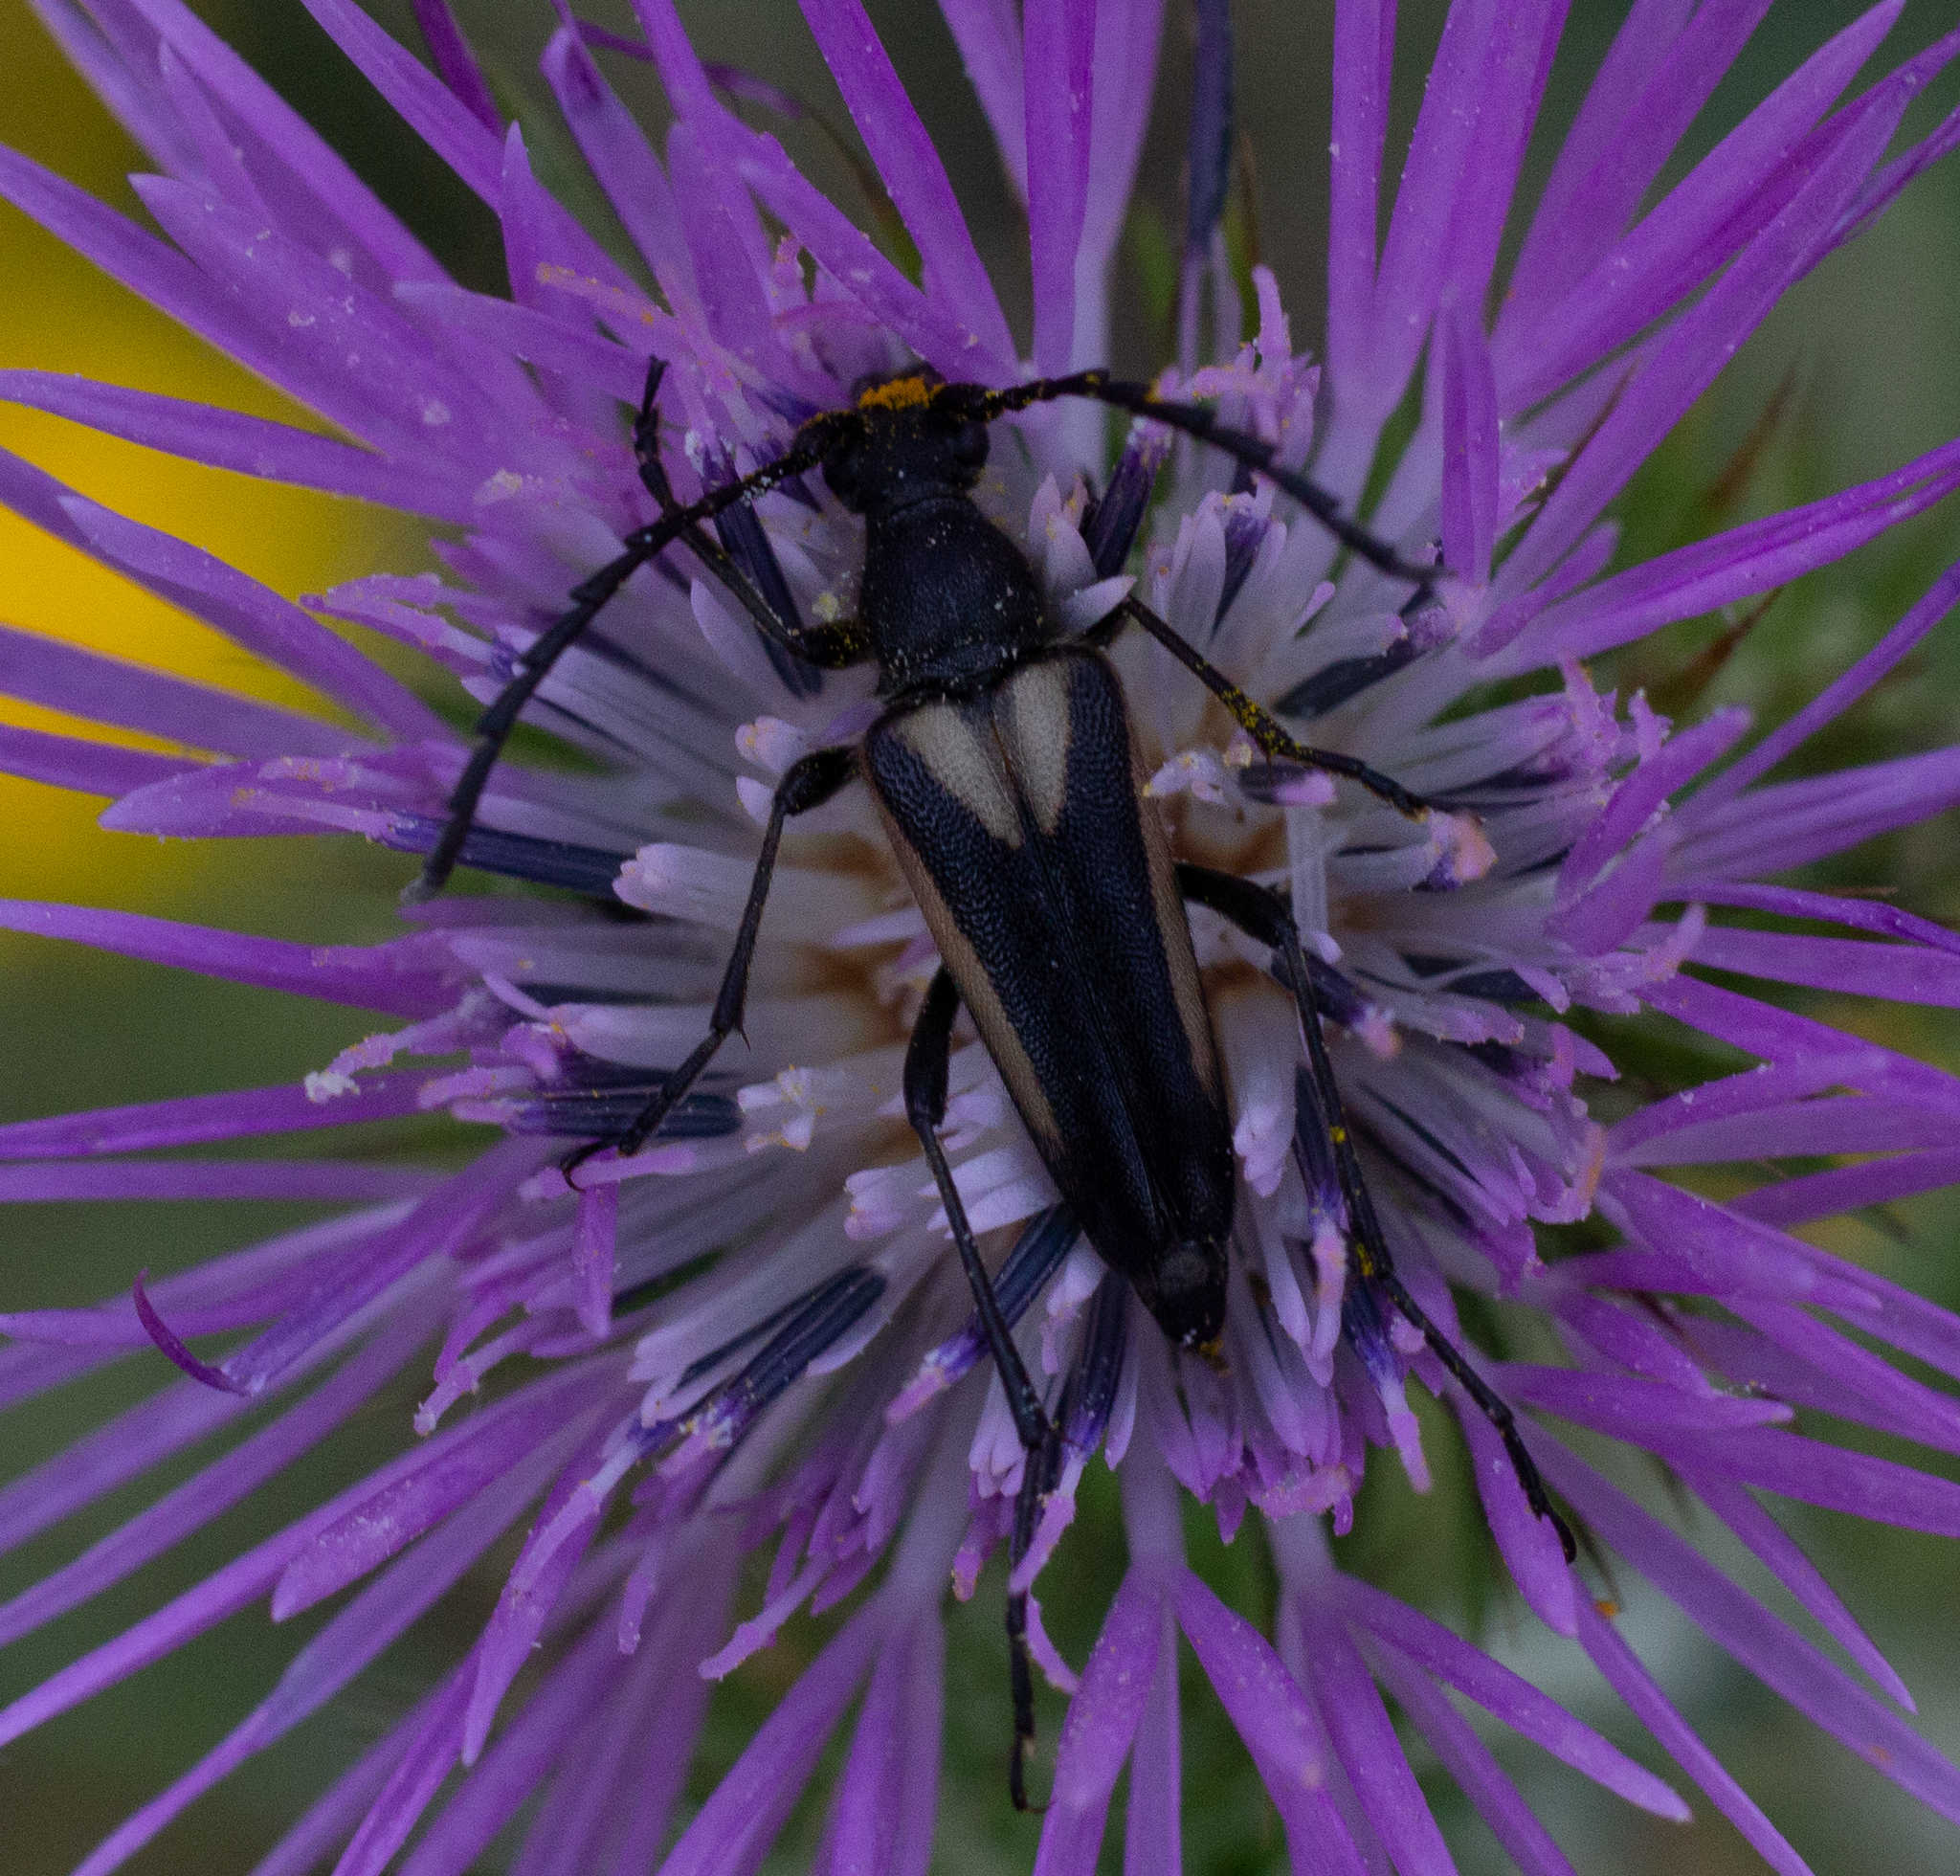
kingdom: Animalia
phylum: Arthropoda
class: Insecta
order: Coleoptera
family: Cerambycidae
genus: Stictoleptura
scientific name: Stictoleptura stragulata
